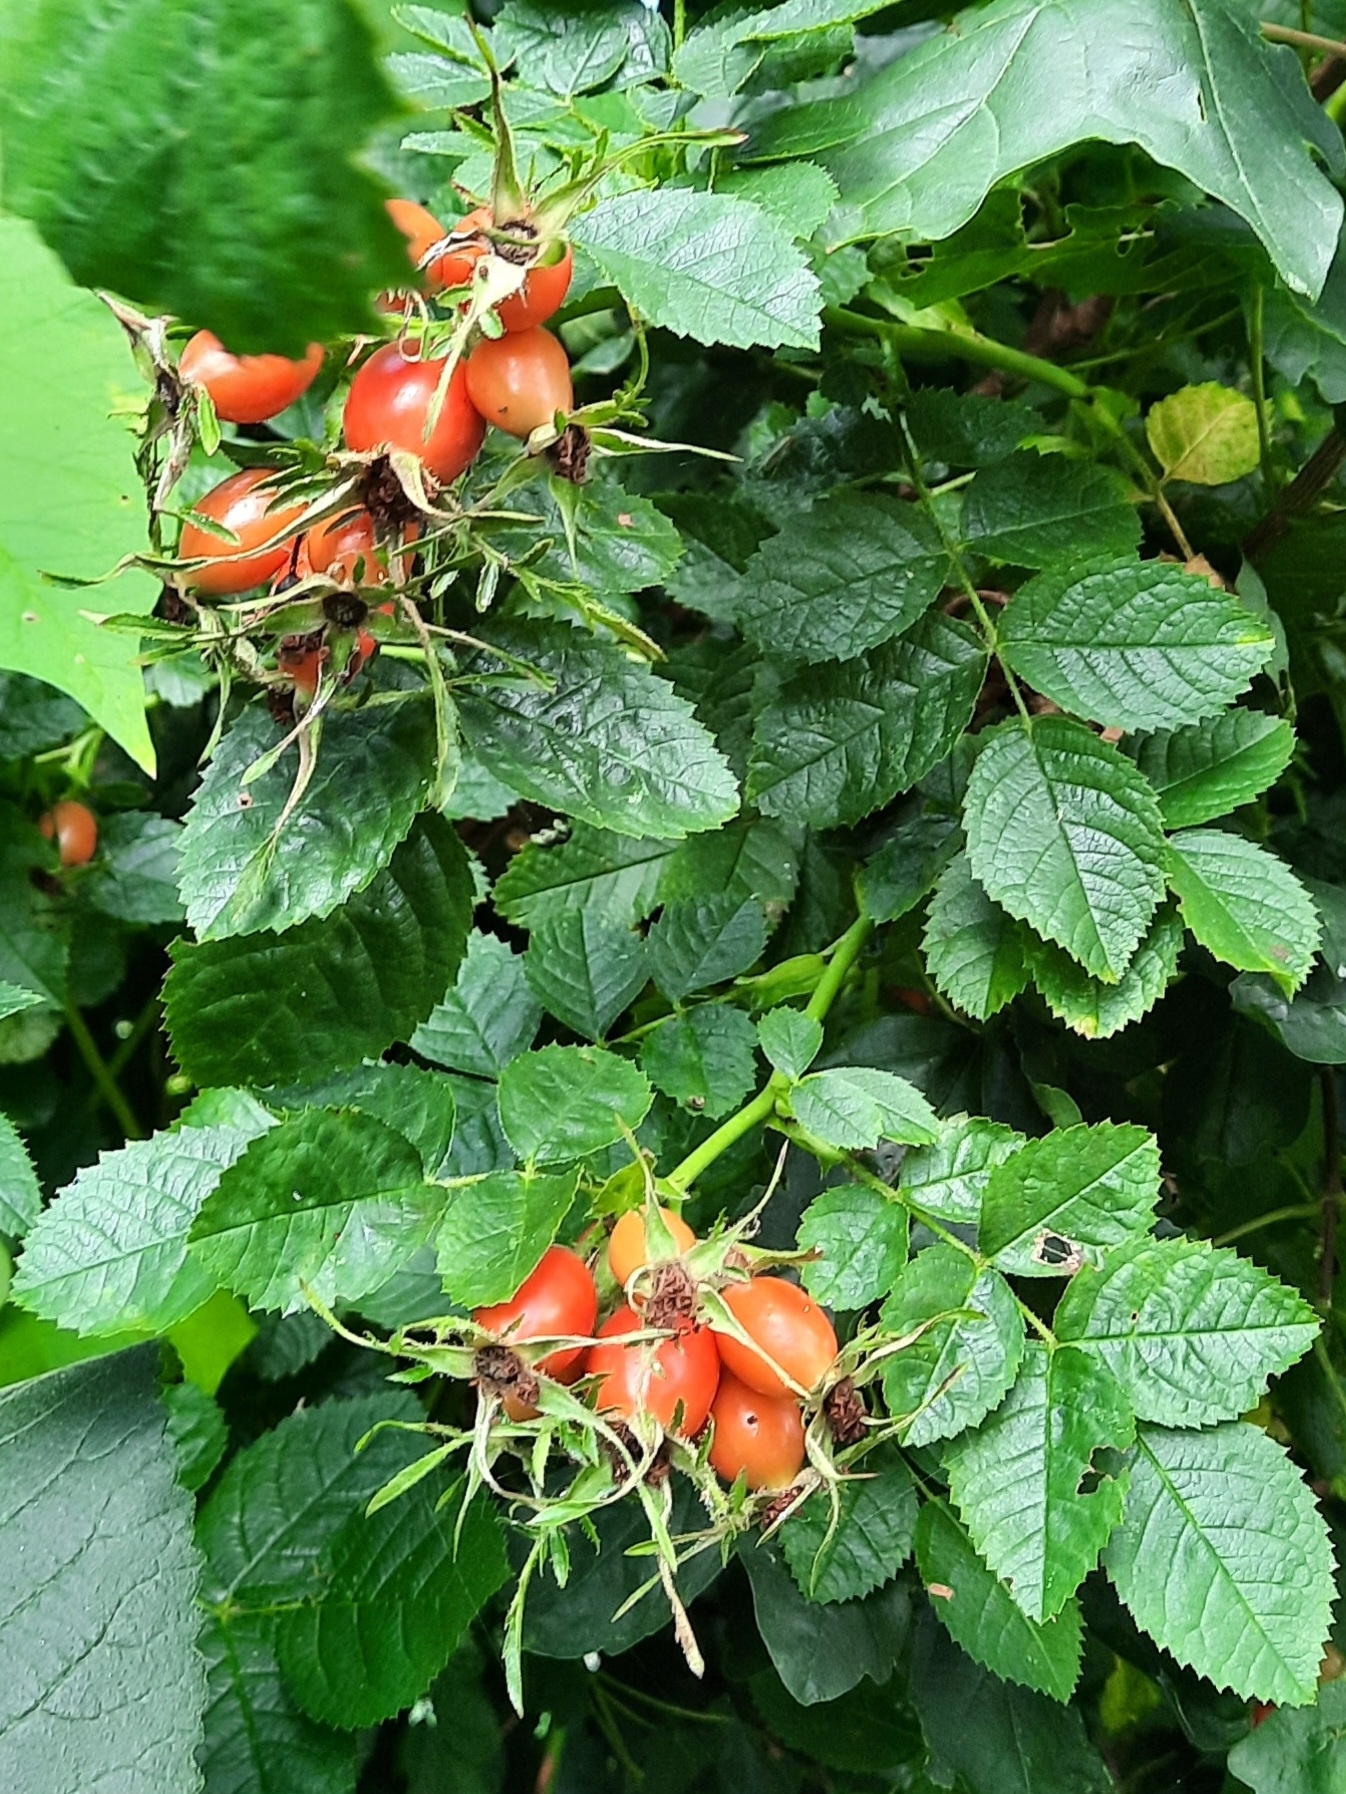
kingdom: Plantae
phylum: Tracheophyta
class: Magnoliopsida
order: Rosales
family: Rosaceae
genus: Rosa
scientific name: Rosa rubiginosa
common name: Sweet-briar
